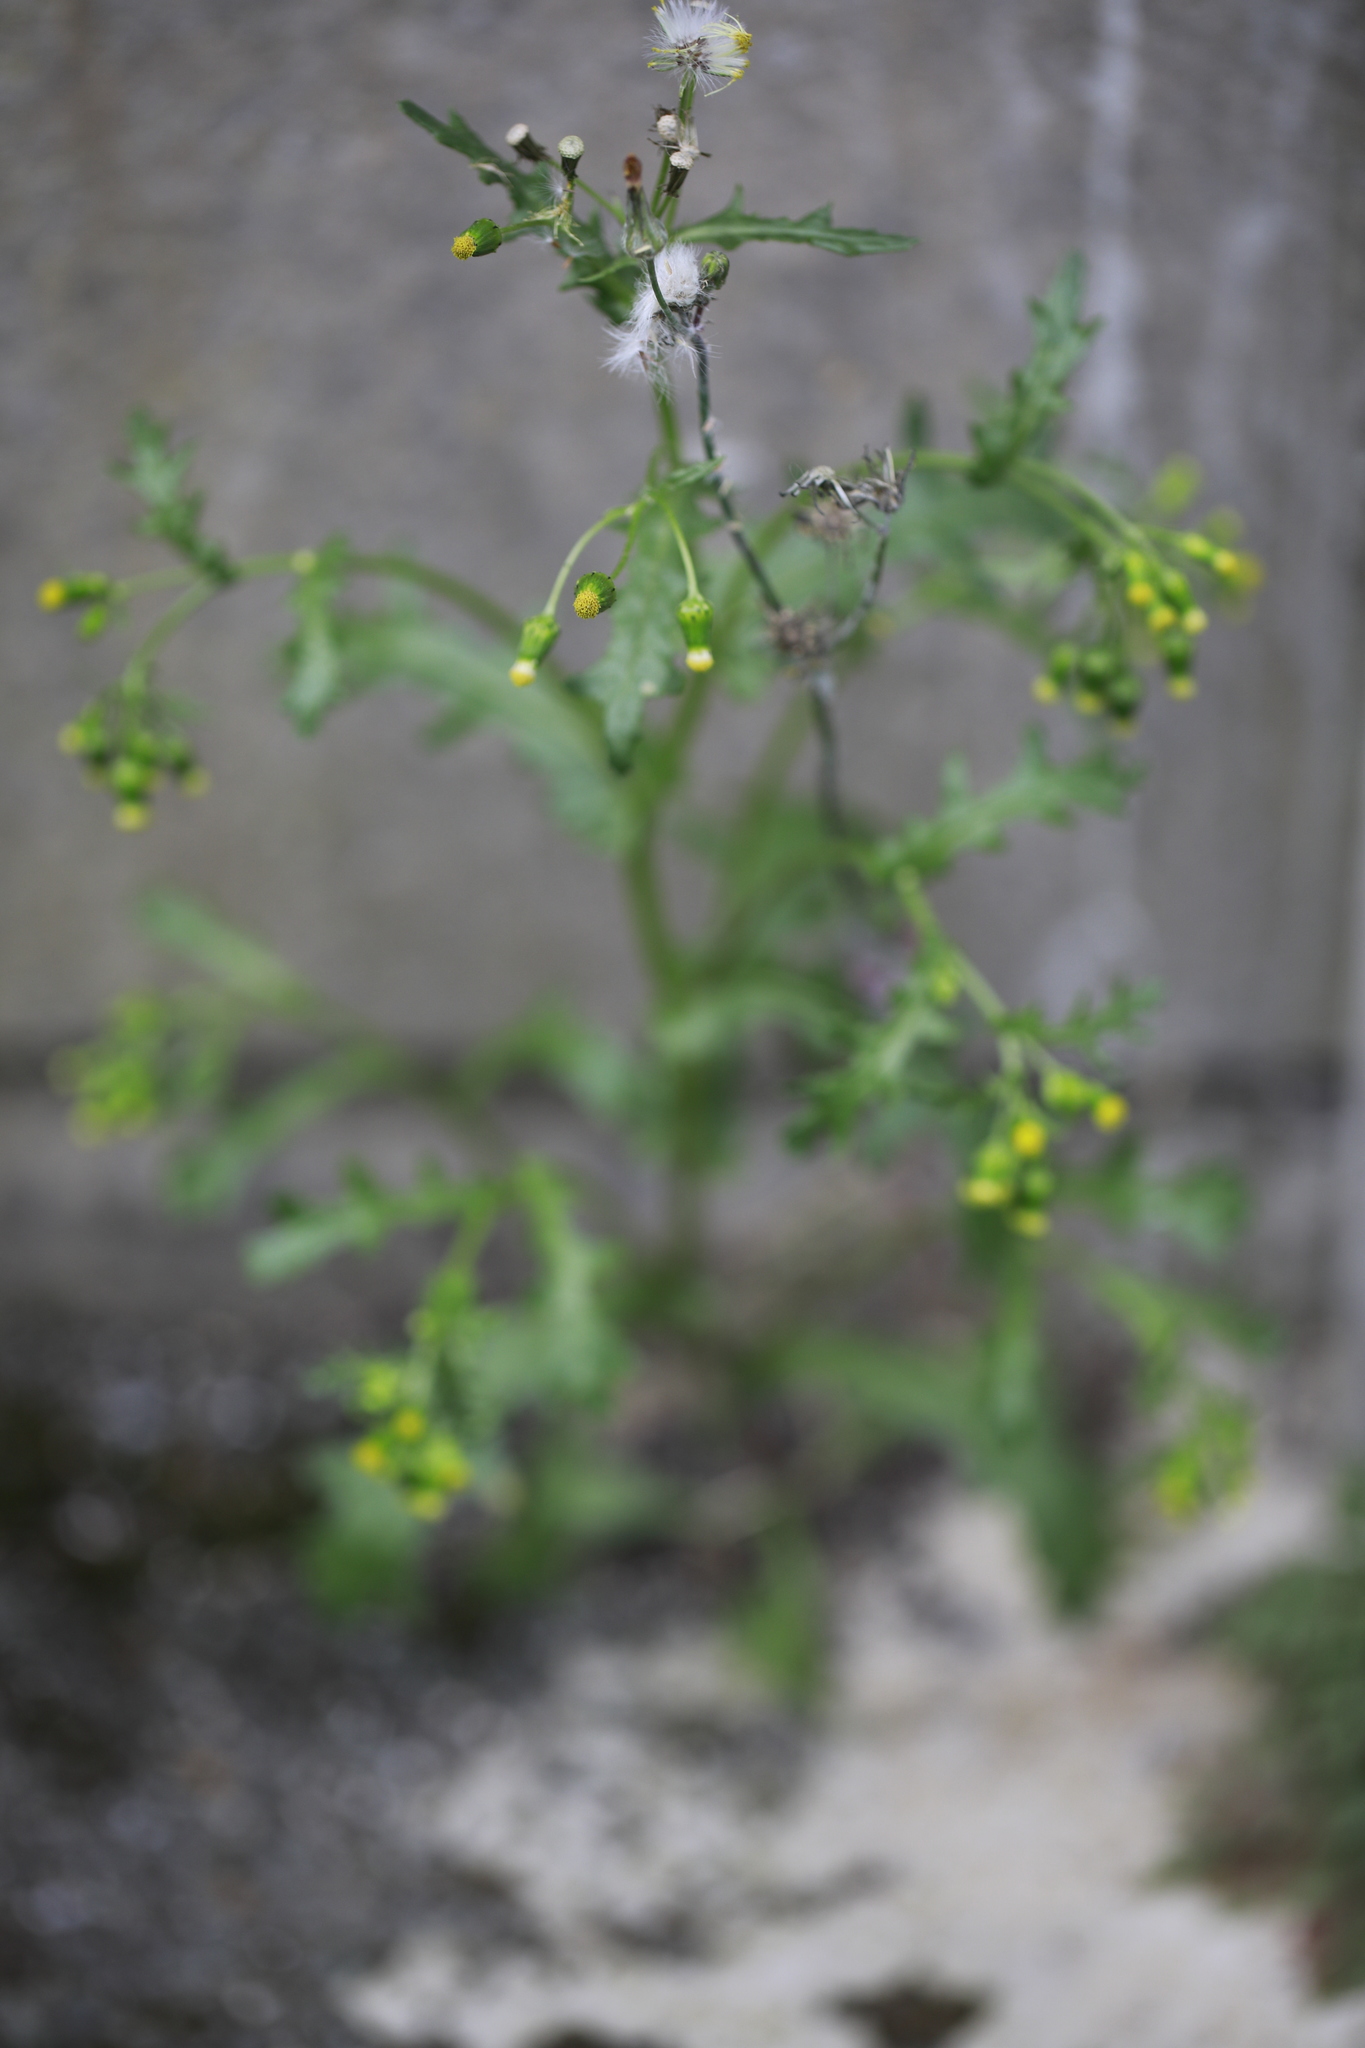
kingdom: Plantae
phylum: Tracheophyta
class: Magnoliopsida
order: Asterales
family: Asteraceae
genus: Senecio
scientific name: Senecio vulgaris
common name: Old-man-in-the-spring
